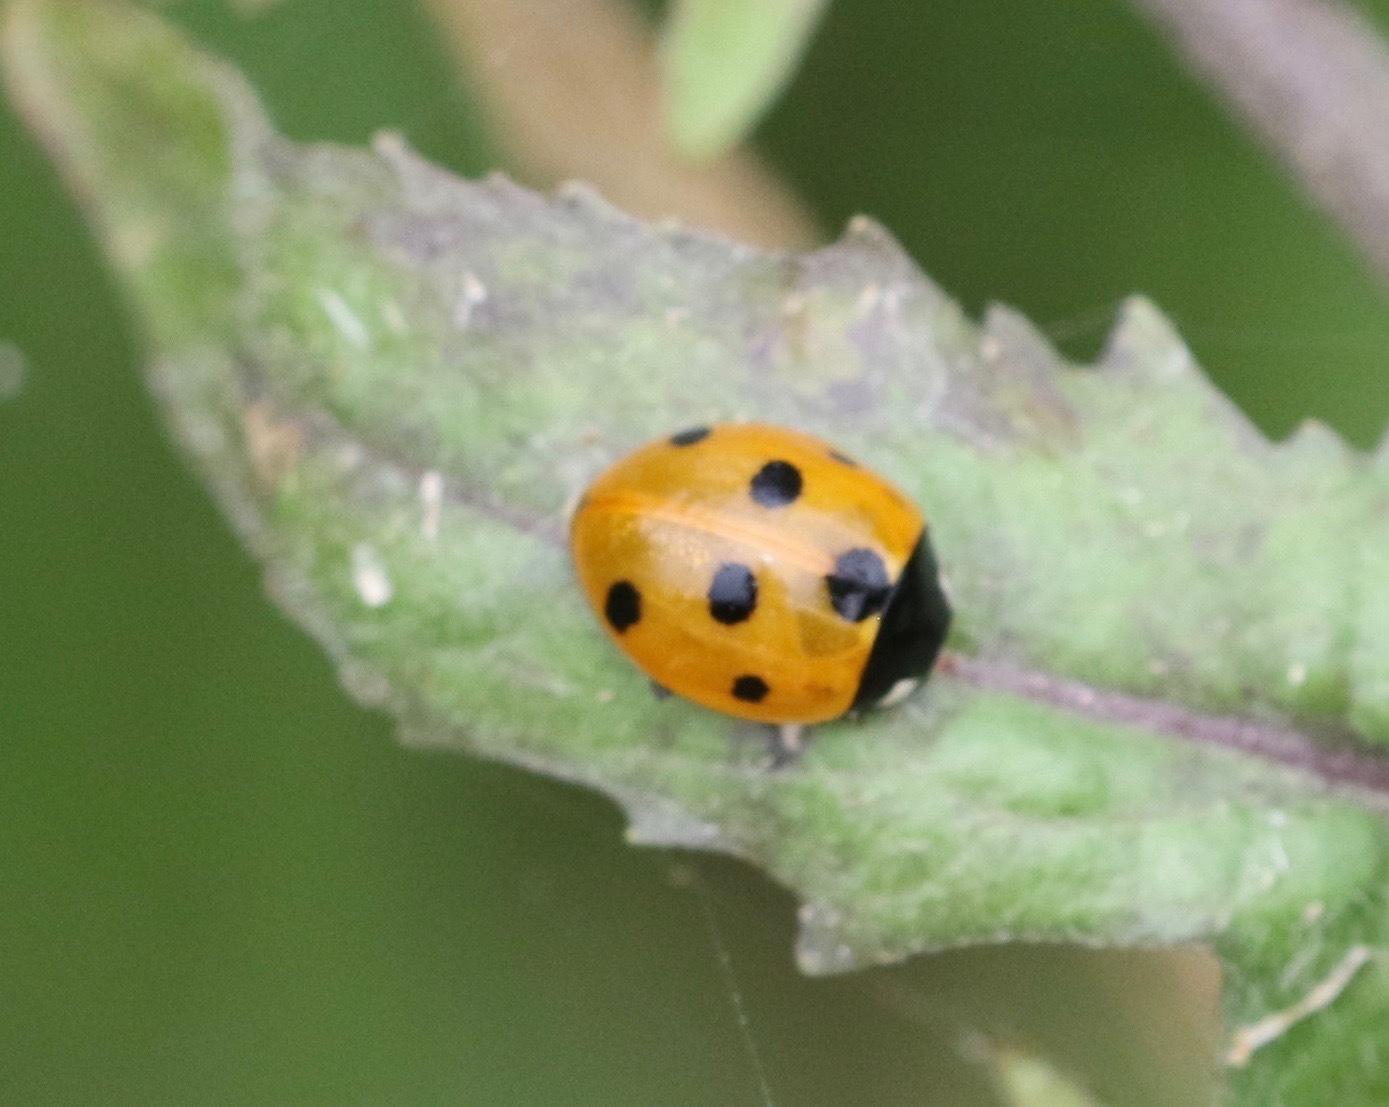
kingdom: Animalia
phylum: Arthropoda
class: Insecta
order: Coleoptera
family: Coccinellidae
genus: Coccinella
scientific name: Coccinella septempunctata
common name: Sevenspotted lady beetle
